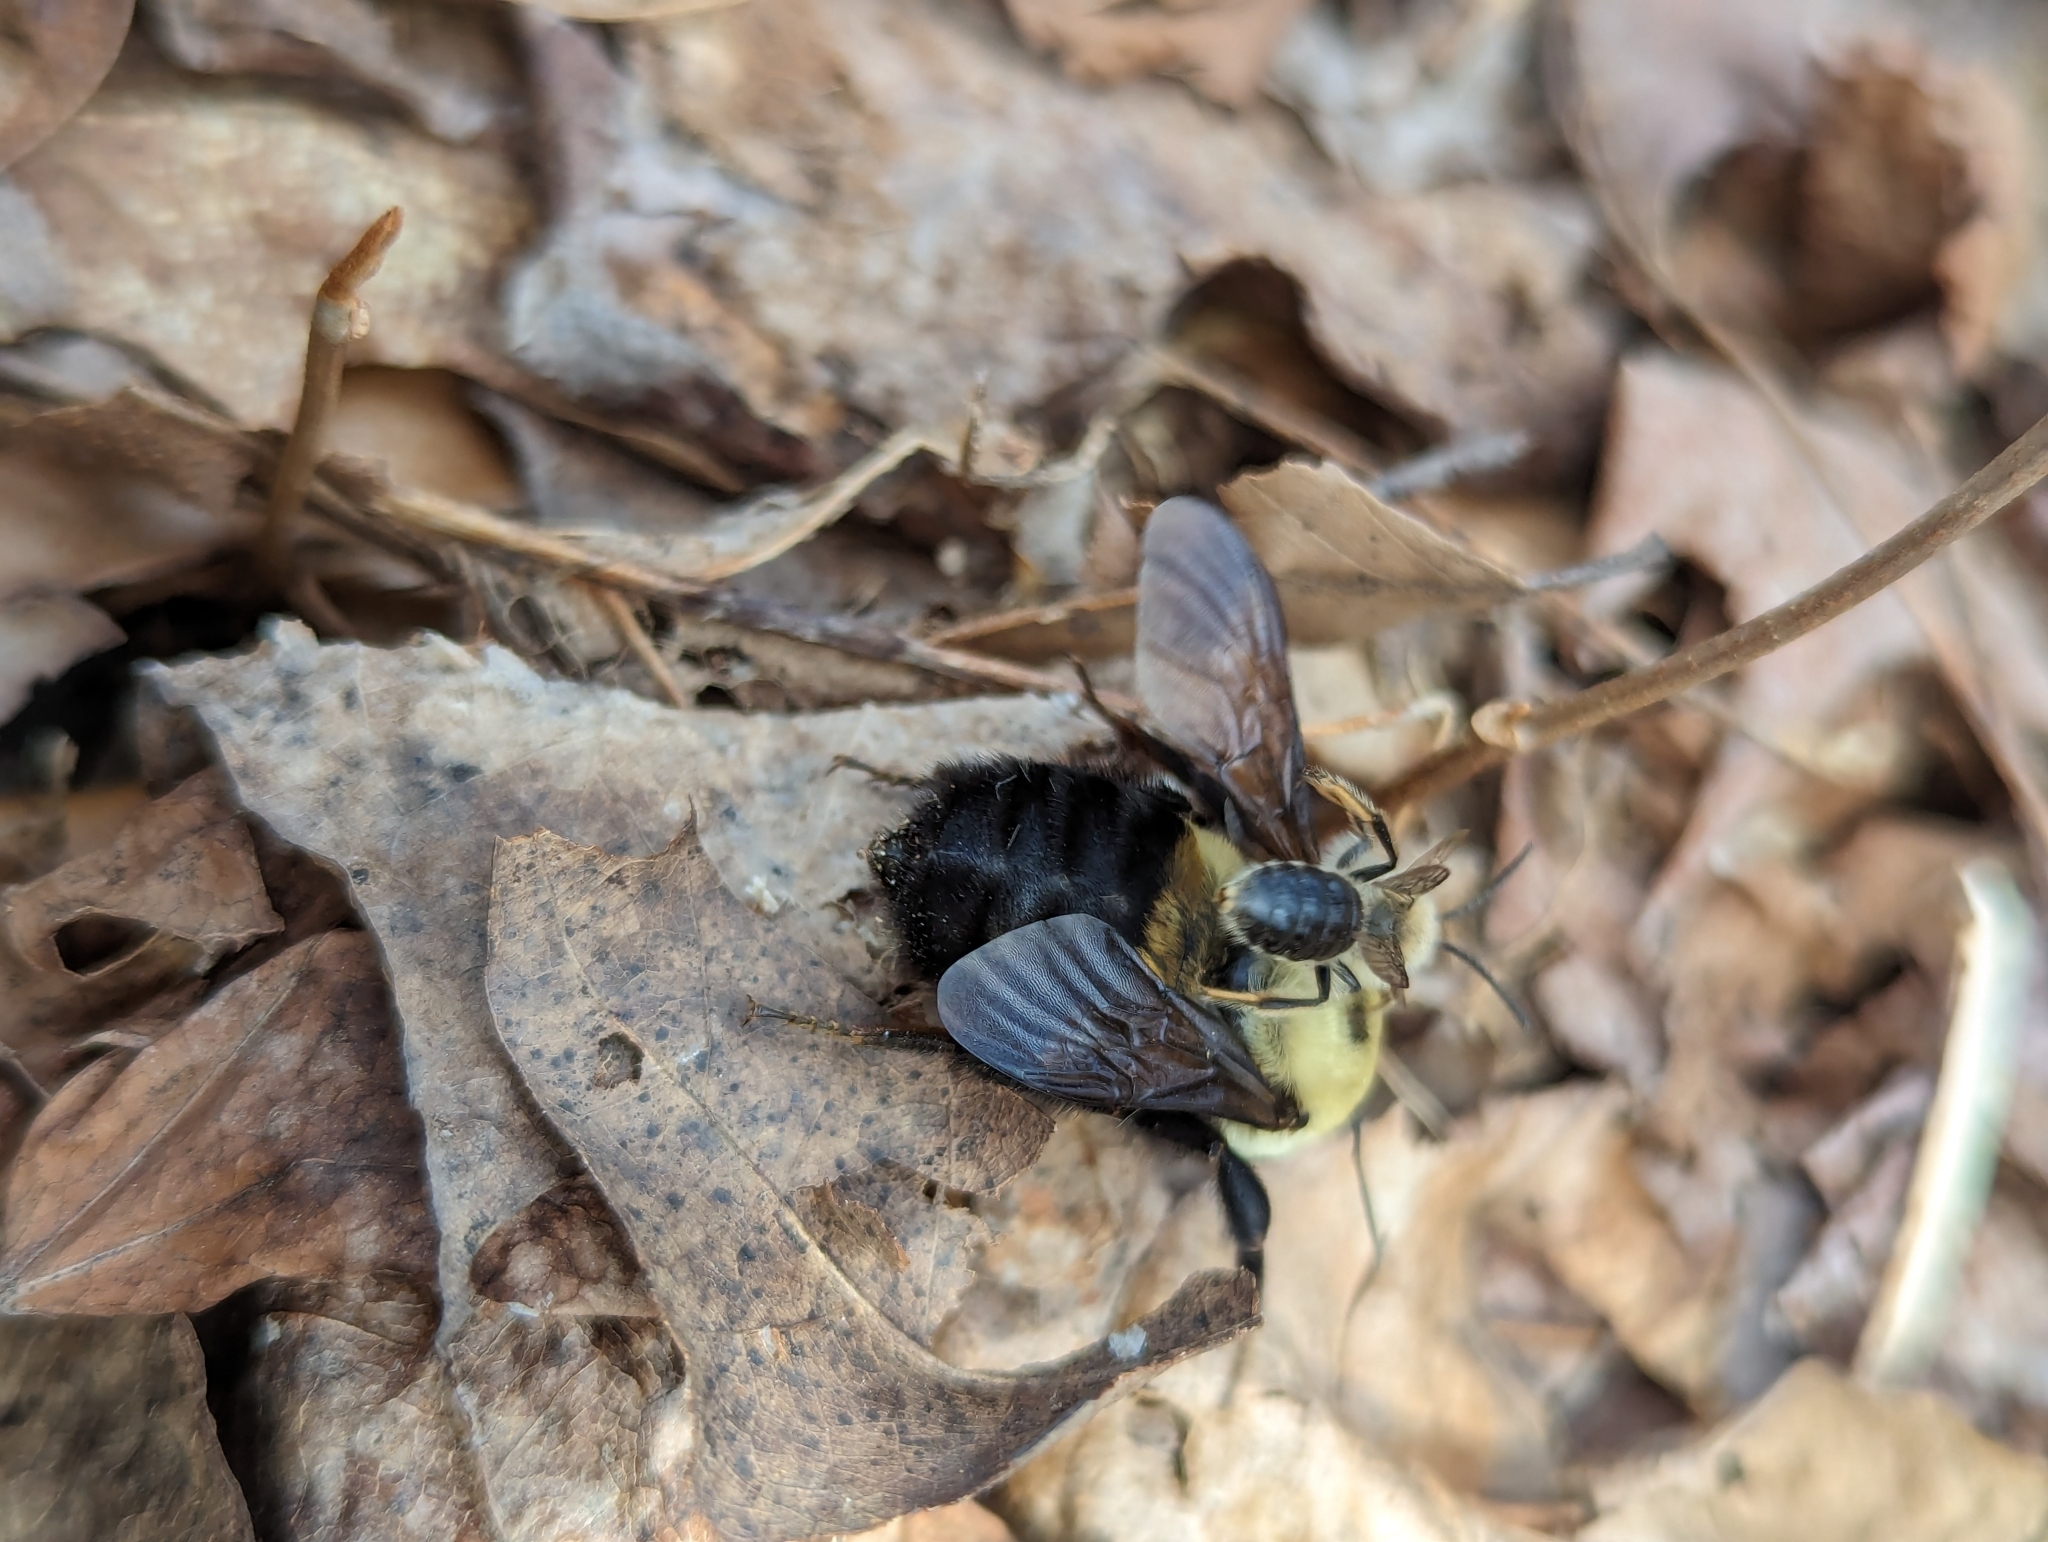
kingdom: Animalia
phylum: Arthropoda
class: Insecta
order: Hymenoptera
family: Apidae
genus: Bombus
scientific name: Bombus griseocollis
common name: Brown-belted bumble bee
